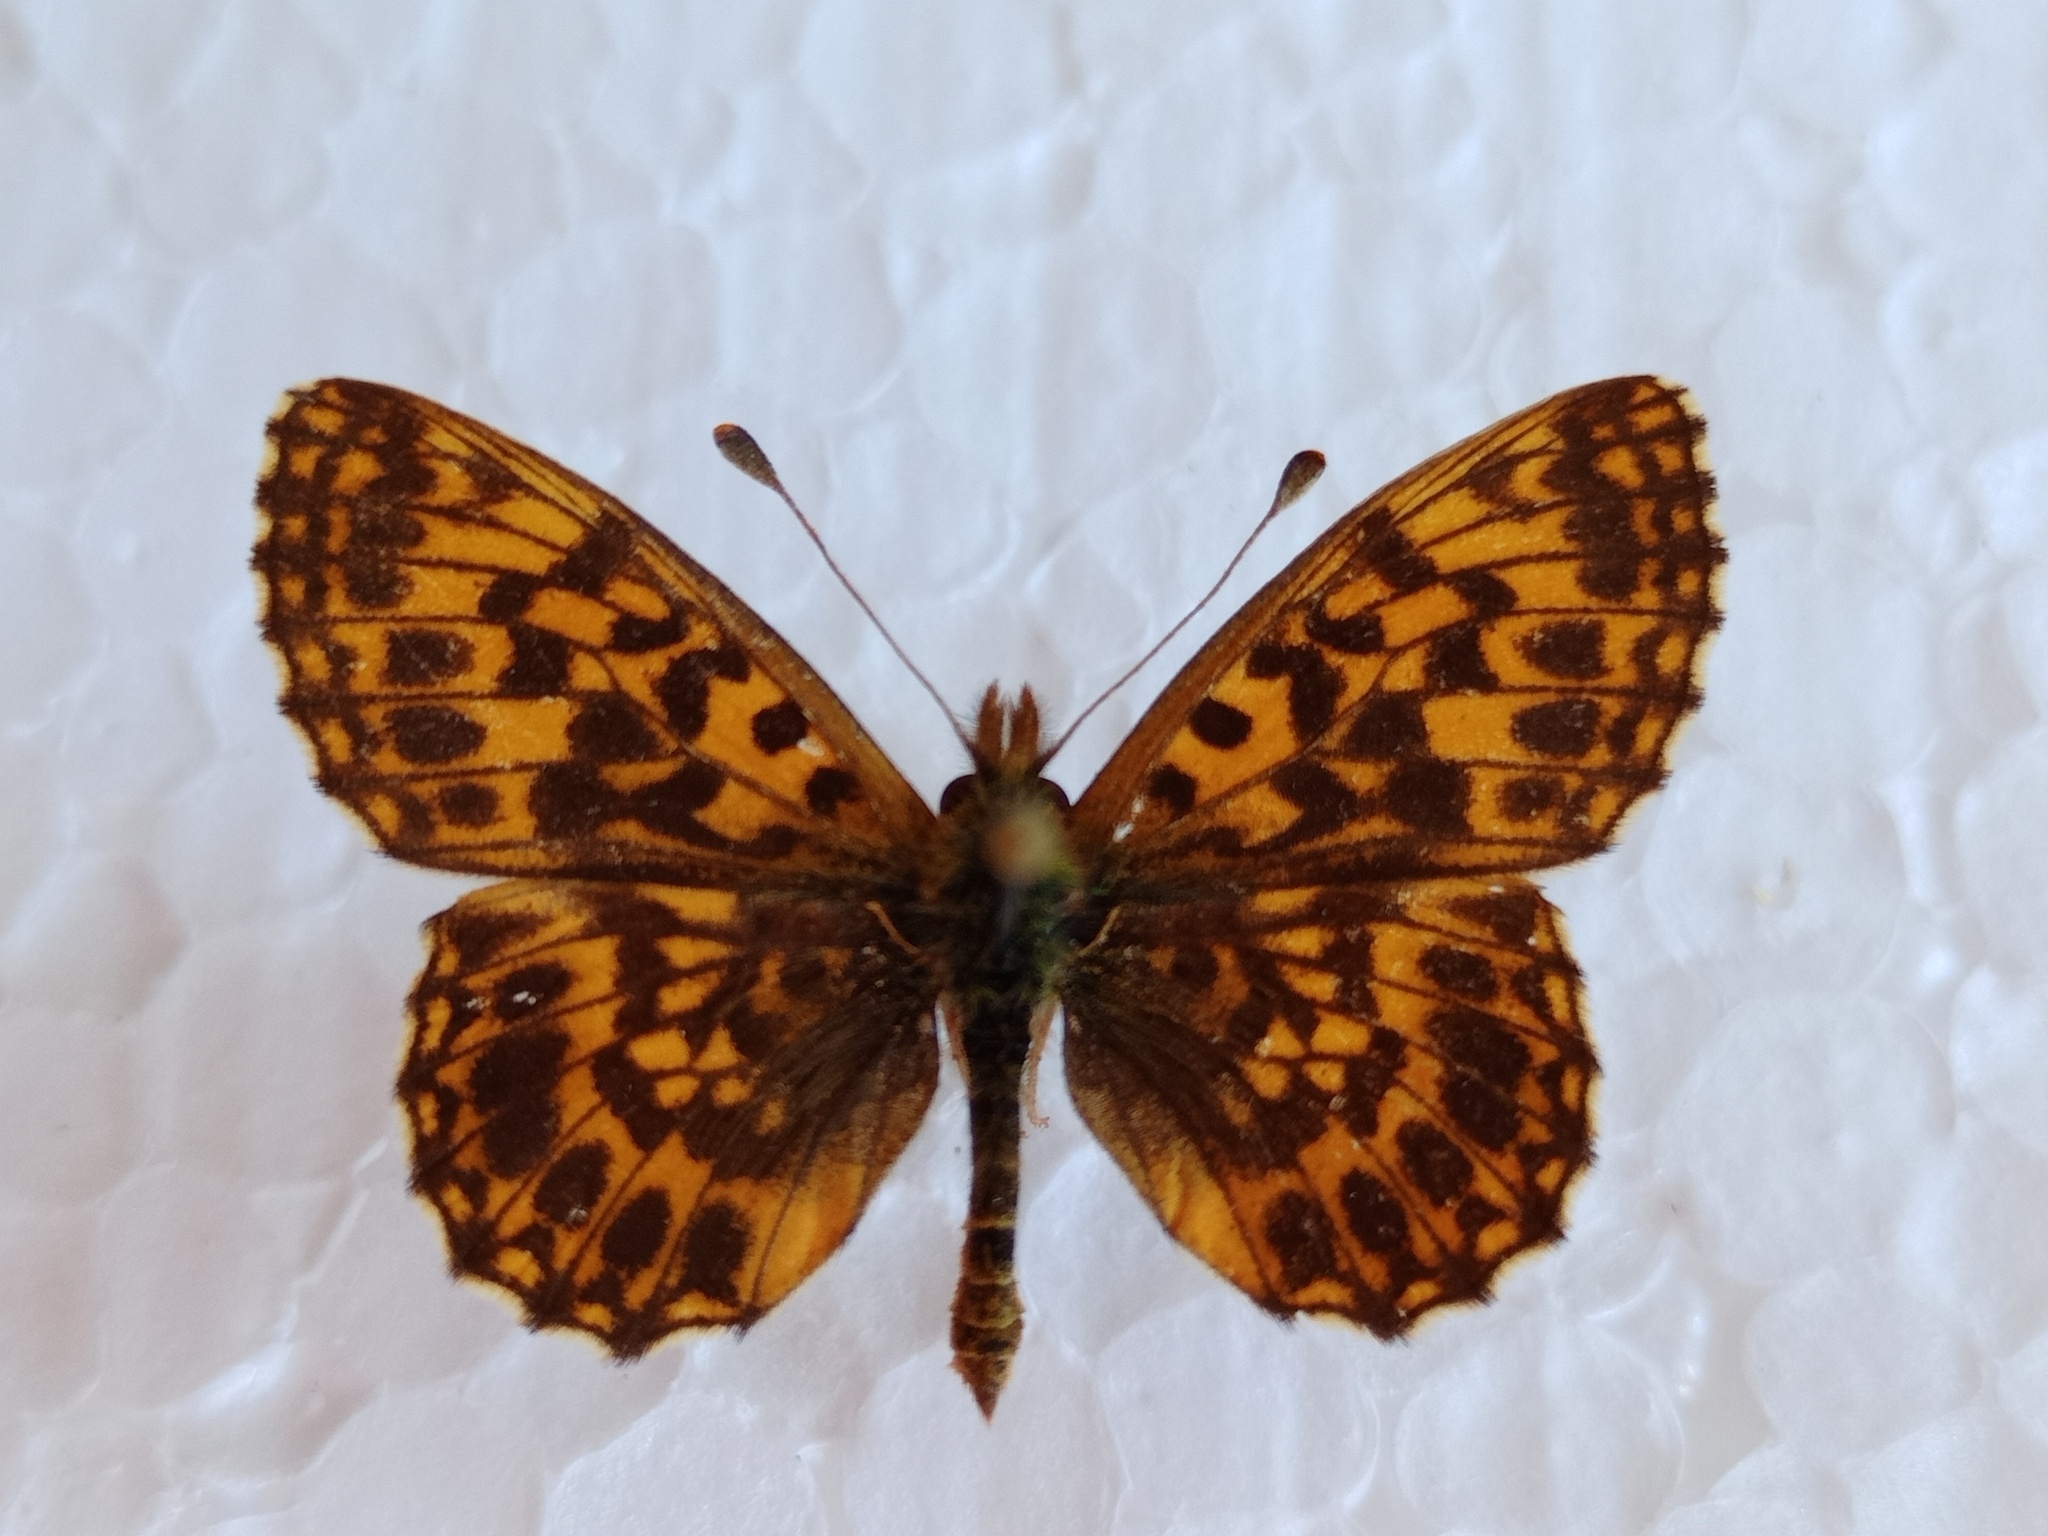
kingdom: Animalia
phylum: Arthropoda
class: Insecta
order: Lepidoptera
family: Nymphalidae
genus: Boloria
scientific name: Boloria dia
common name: Weaver's fritillary
